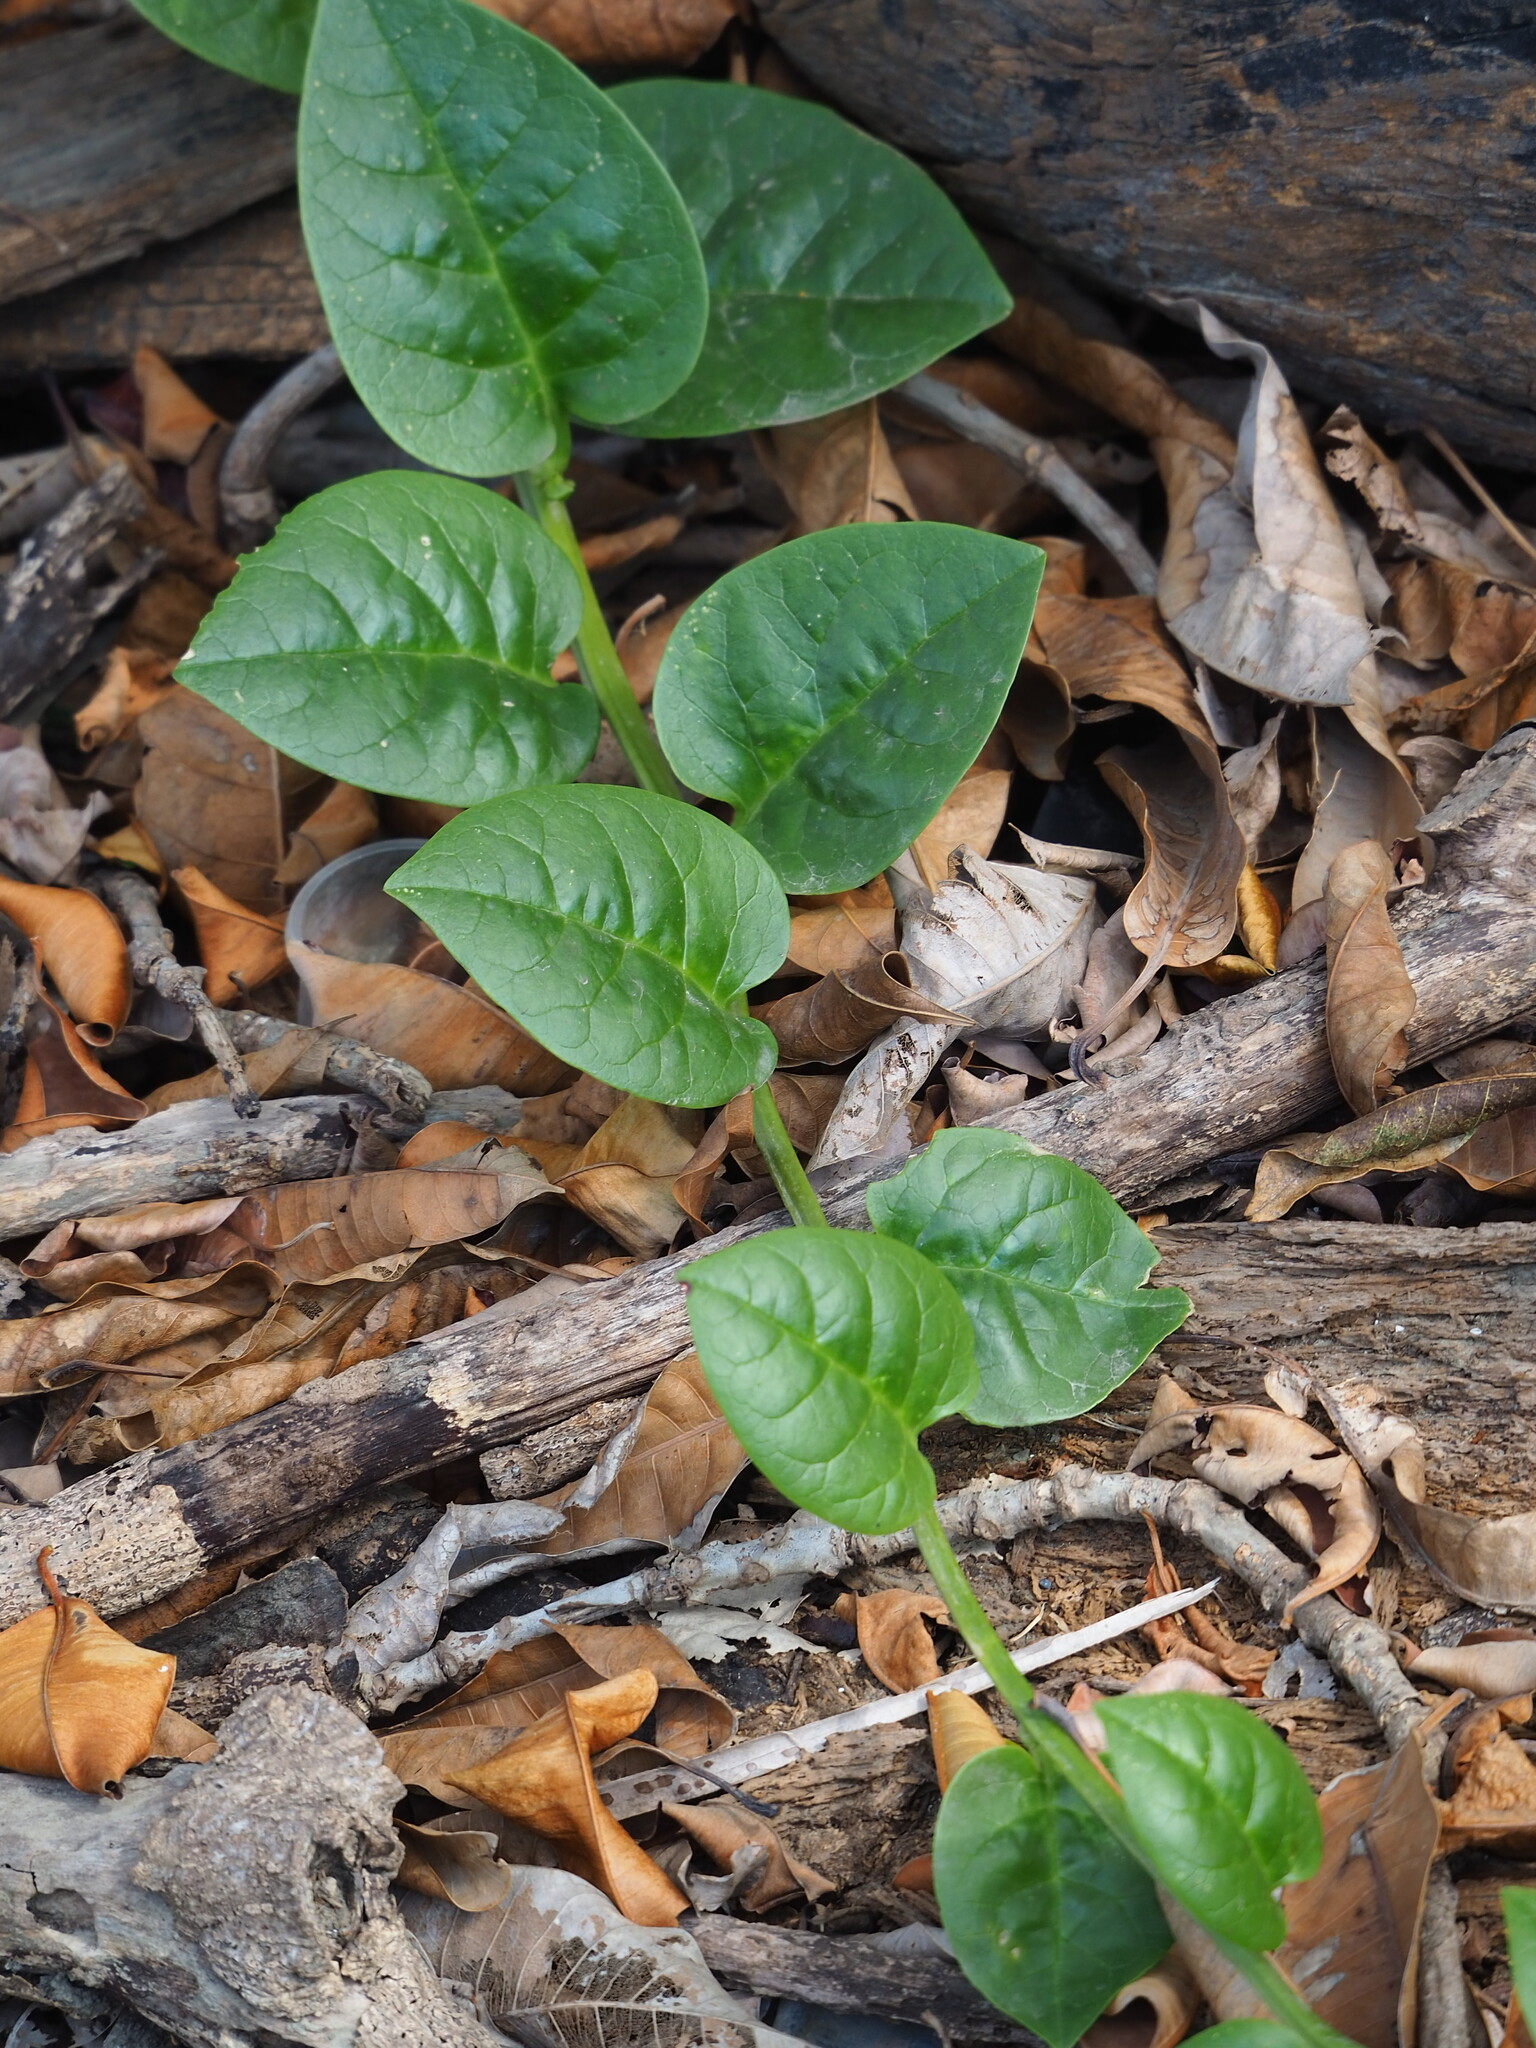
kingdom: Plantae
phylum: Tracheophyta
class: Magnoliopsida
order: Caryophyllales
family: Basellaceae
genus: Basella
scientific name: Basella alba
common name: Indian spinach
